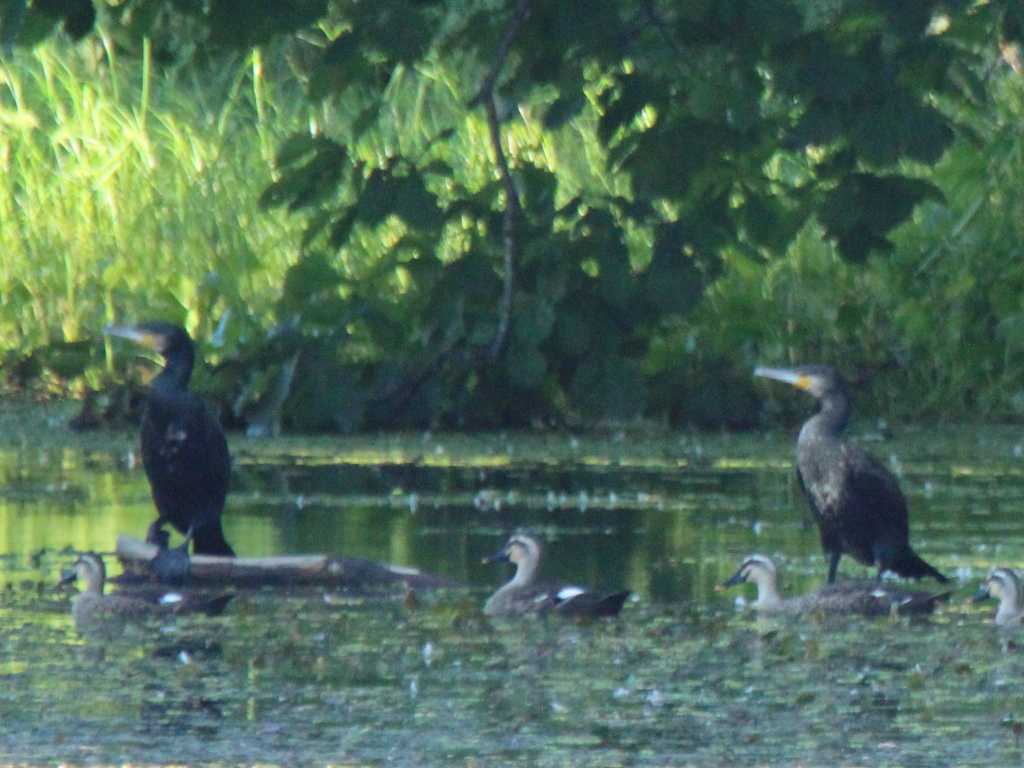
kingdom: Animalia
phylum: Chordata
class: Aves
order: Suliformes
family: Phalacrocoracidae
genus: Phalacrocorax
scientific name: Phalacrocorax carbo
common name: Great cormorant
